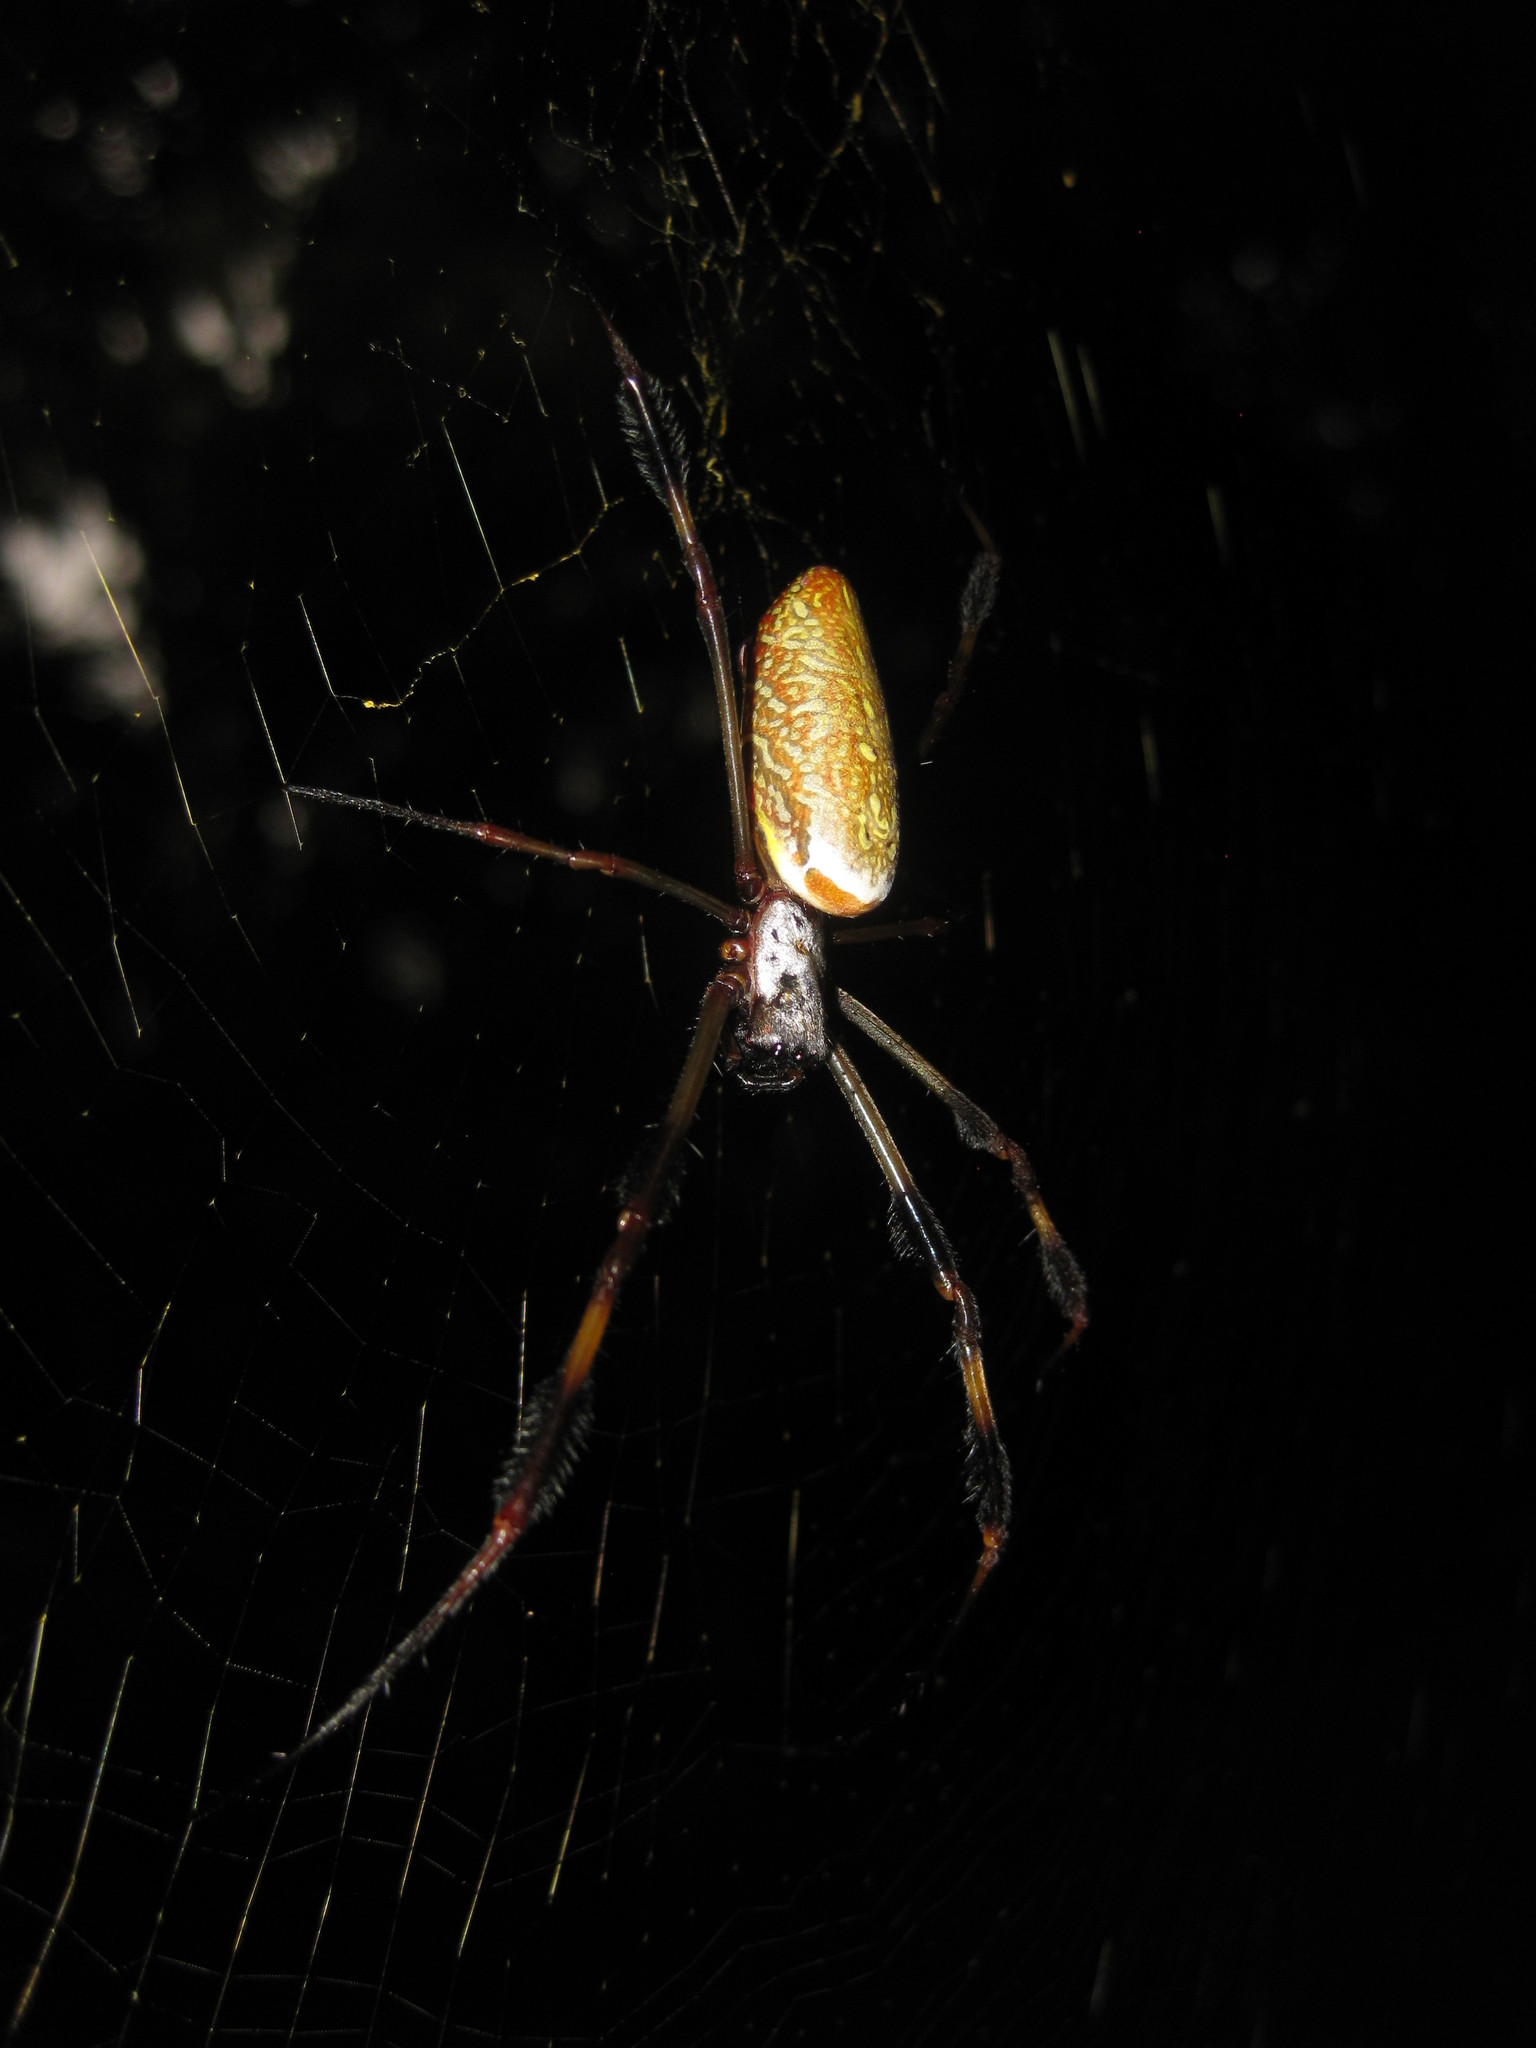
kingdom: Animalia
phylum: Arthropoda
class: Arachnida
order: Araneae
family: Araneidae
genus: Trichonephila
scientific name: Trichonephila clavipes
